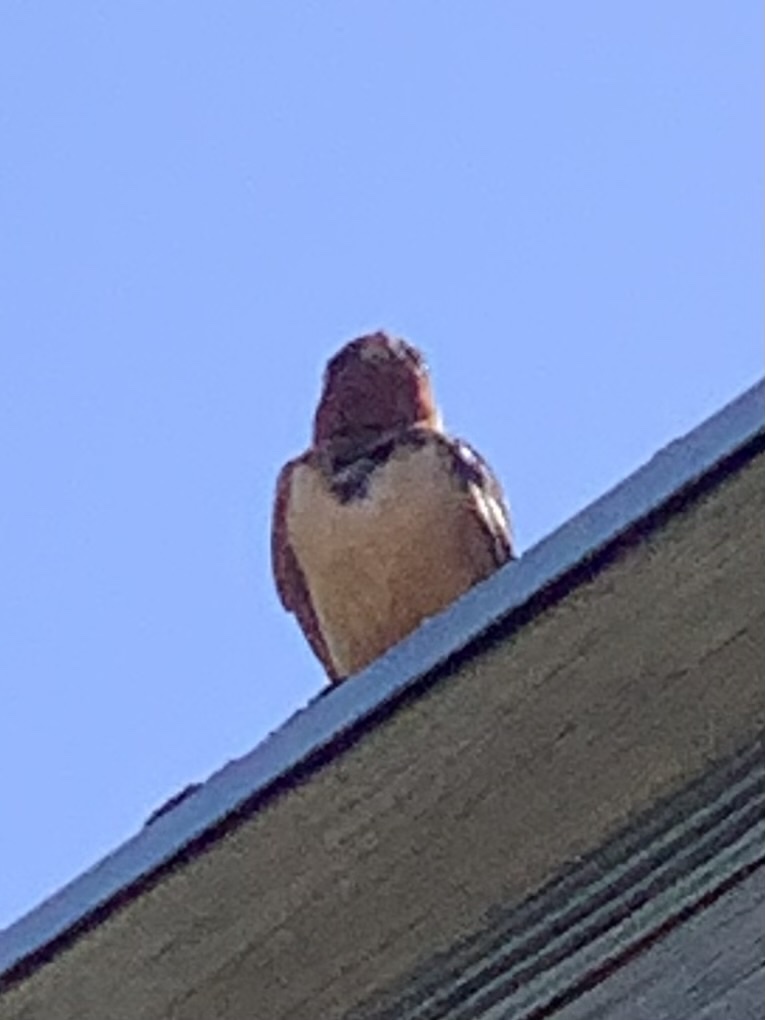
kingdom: Animalia
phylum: Chordata
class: Aves
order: Passeriformes
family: Hirundinidae
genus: Hirundo
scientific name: Hirundo rustica
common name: Barn swallow
